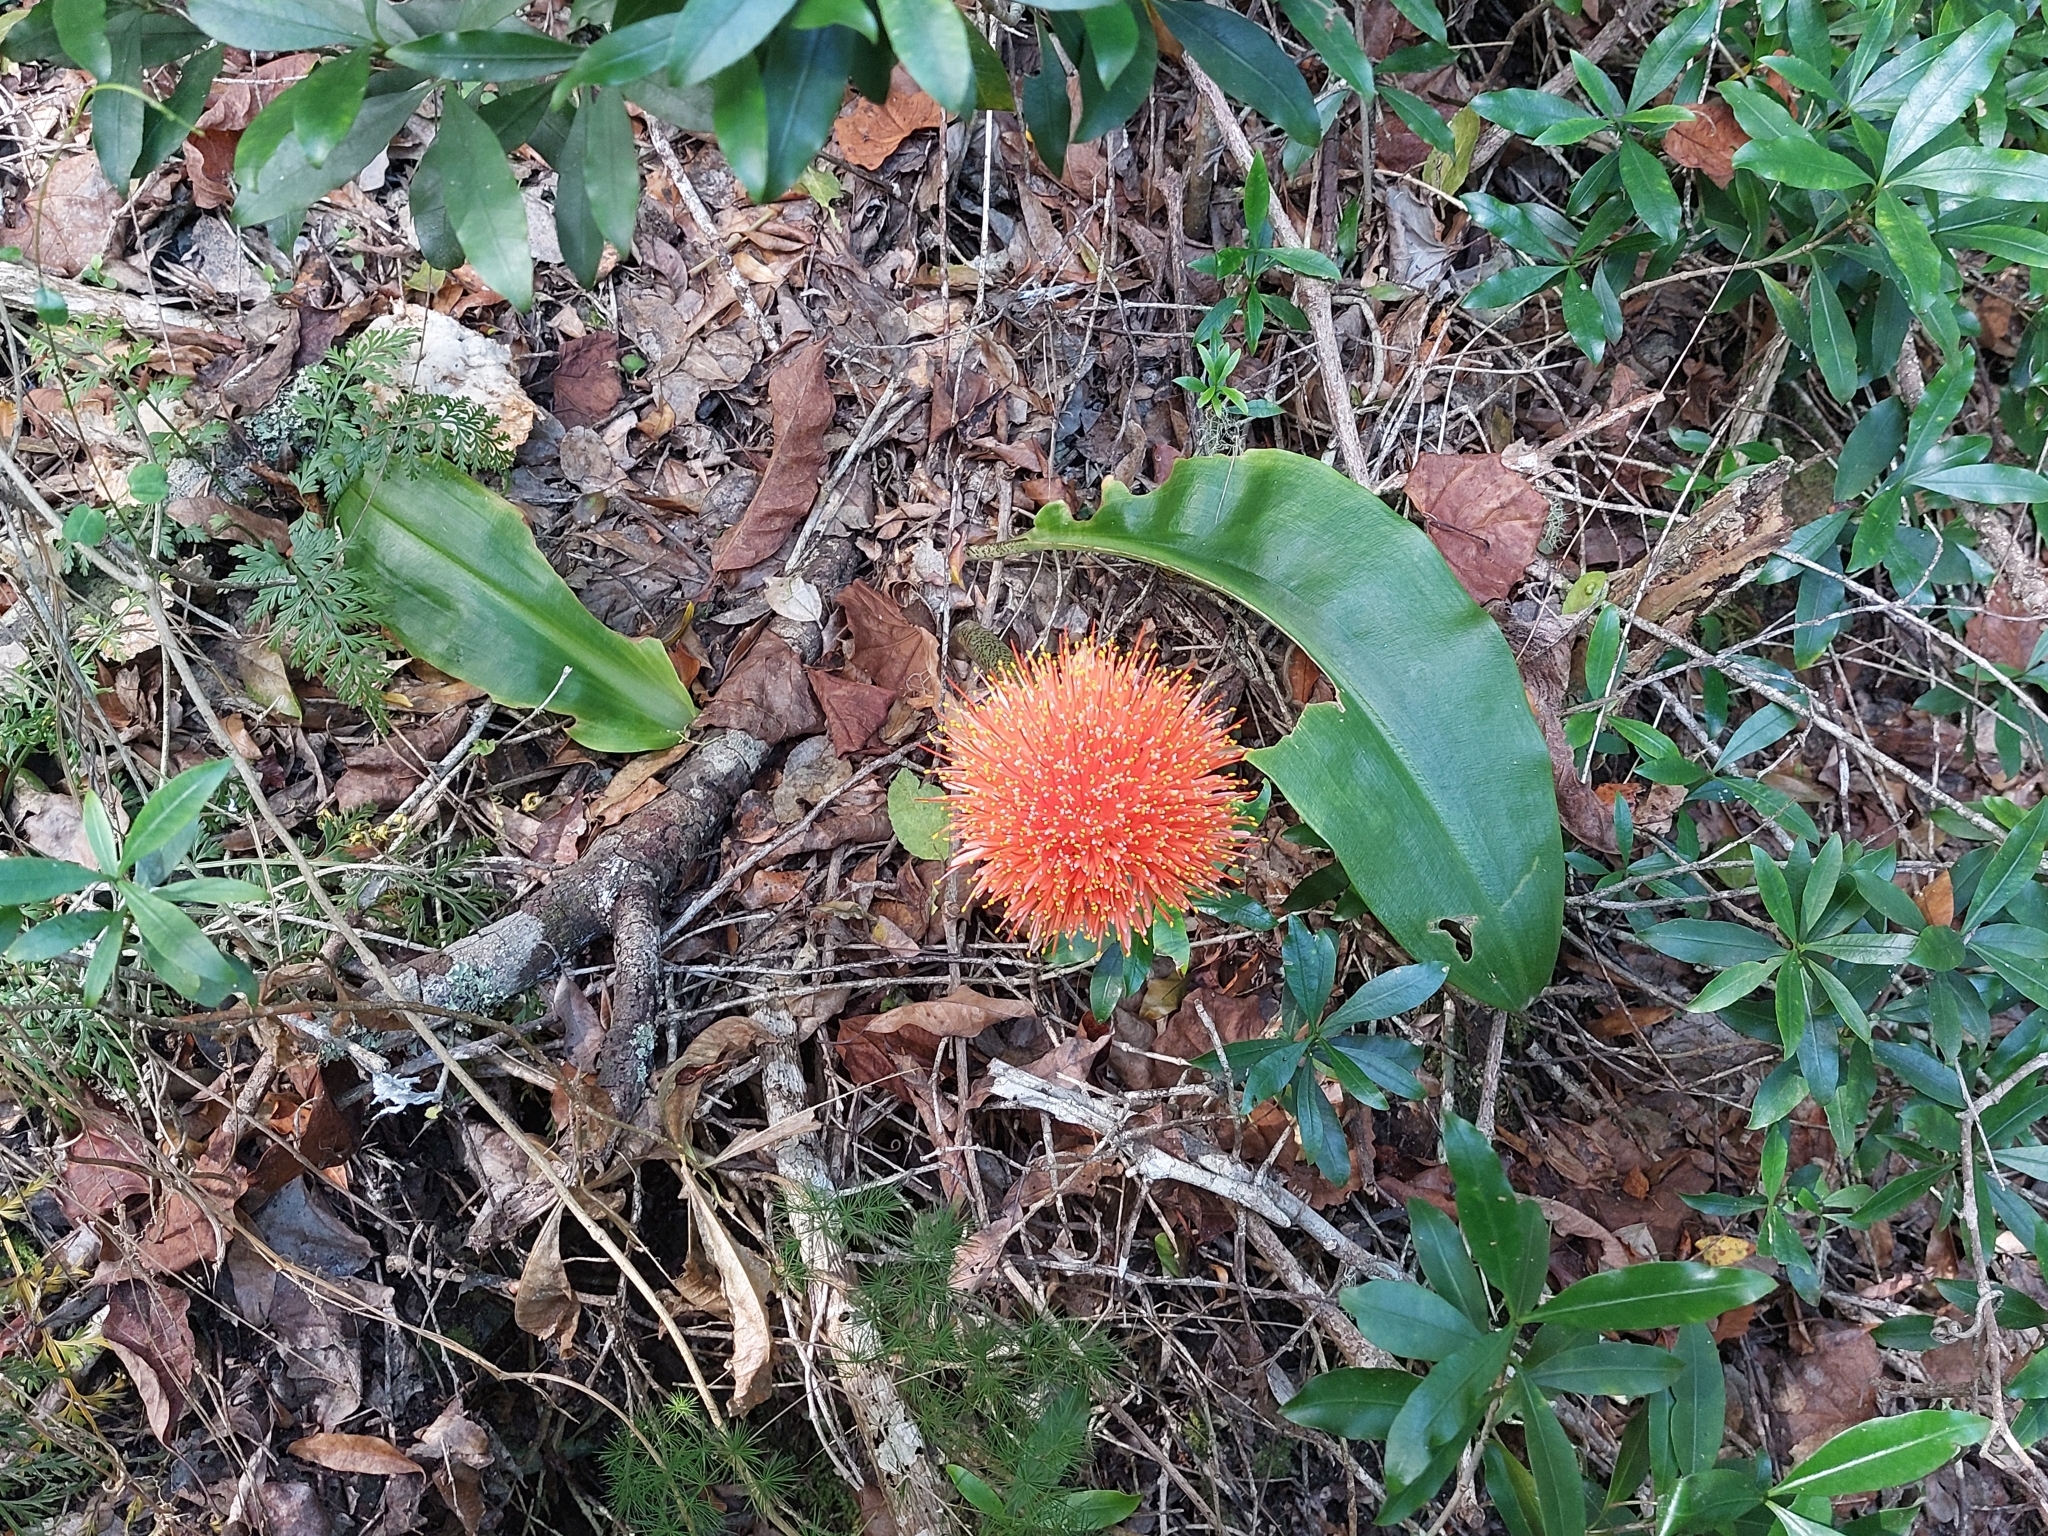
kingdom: Plantae
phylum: Tracheophyta
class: Liliopsida
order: Asparagales
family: Amaryllidaceae
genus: Scadoxus
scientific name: Scadoxus puniceus
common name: Royal-paintbrush
